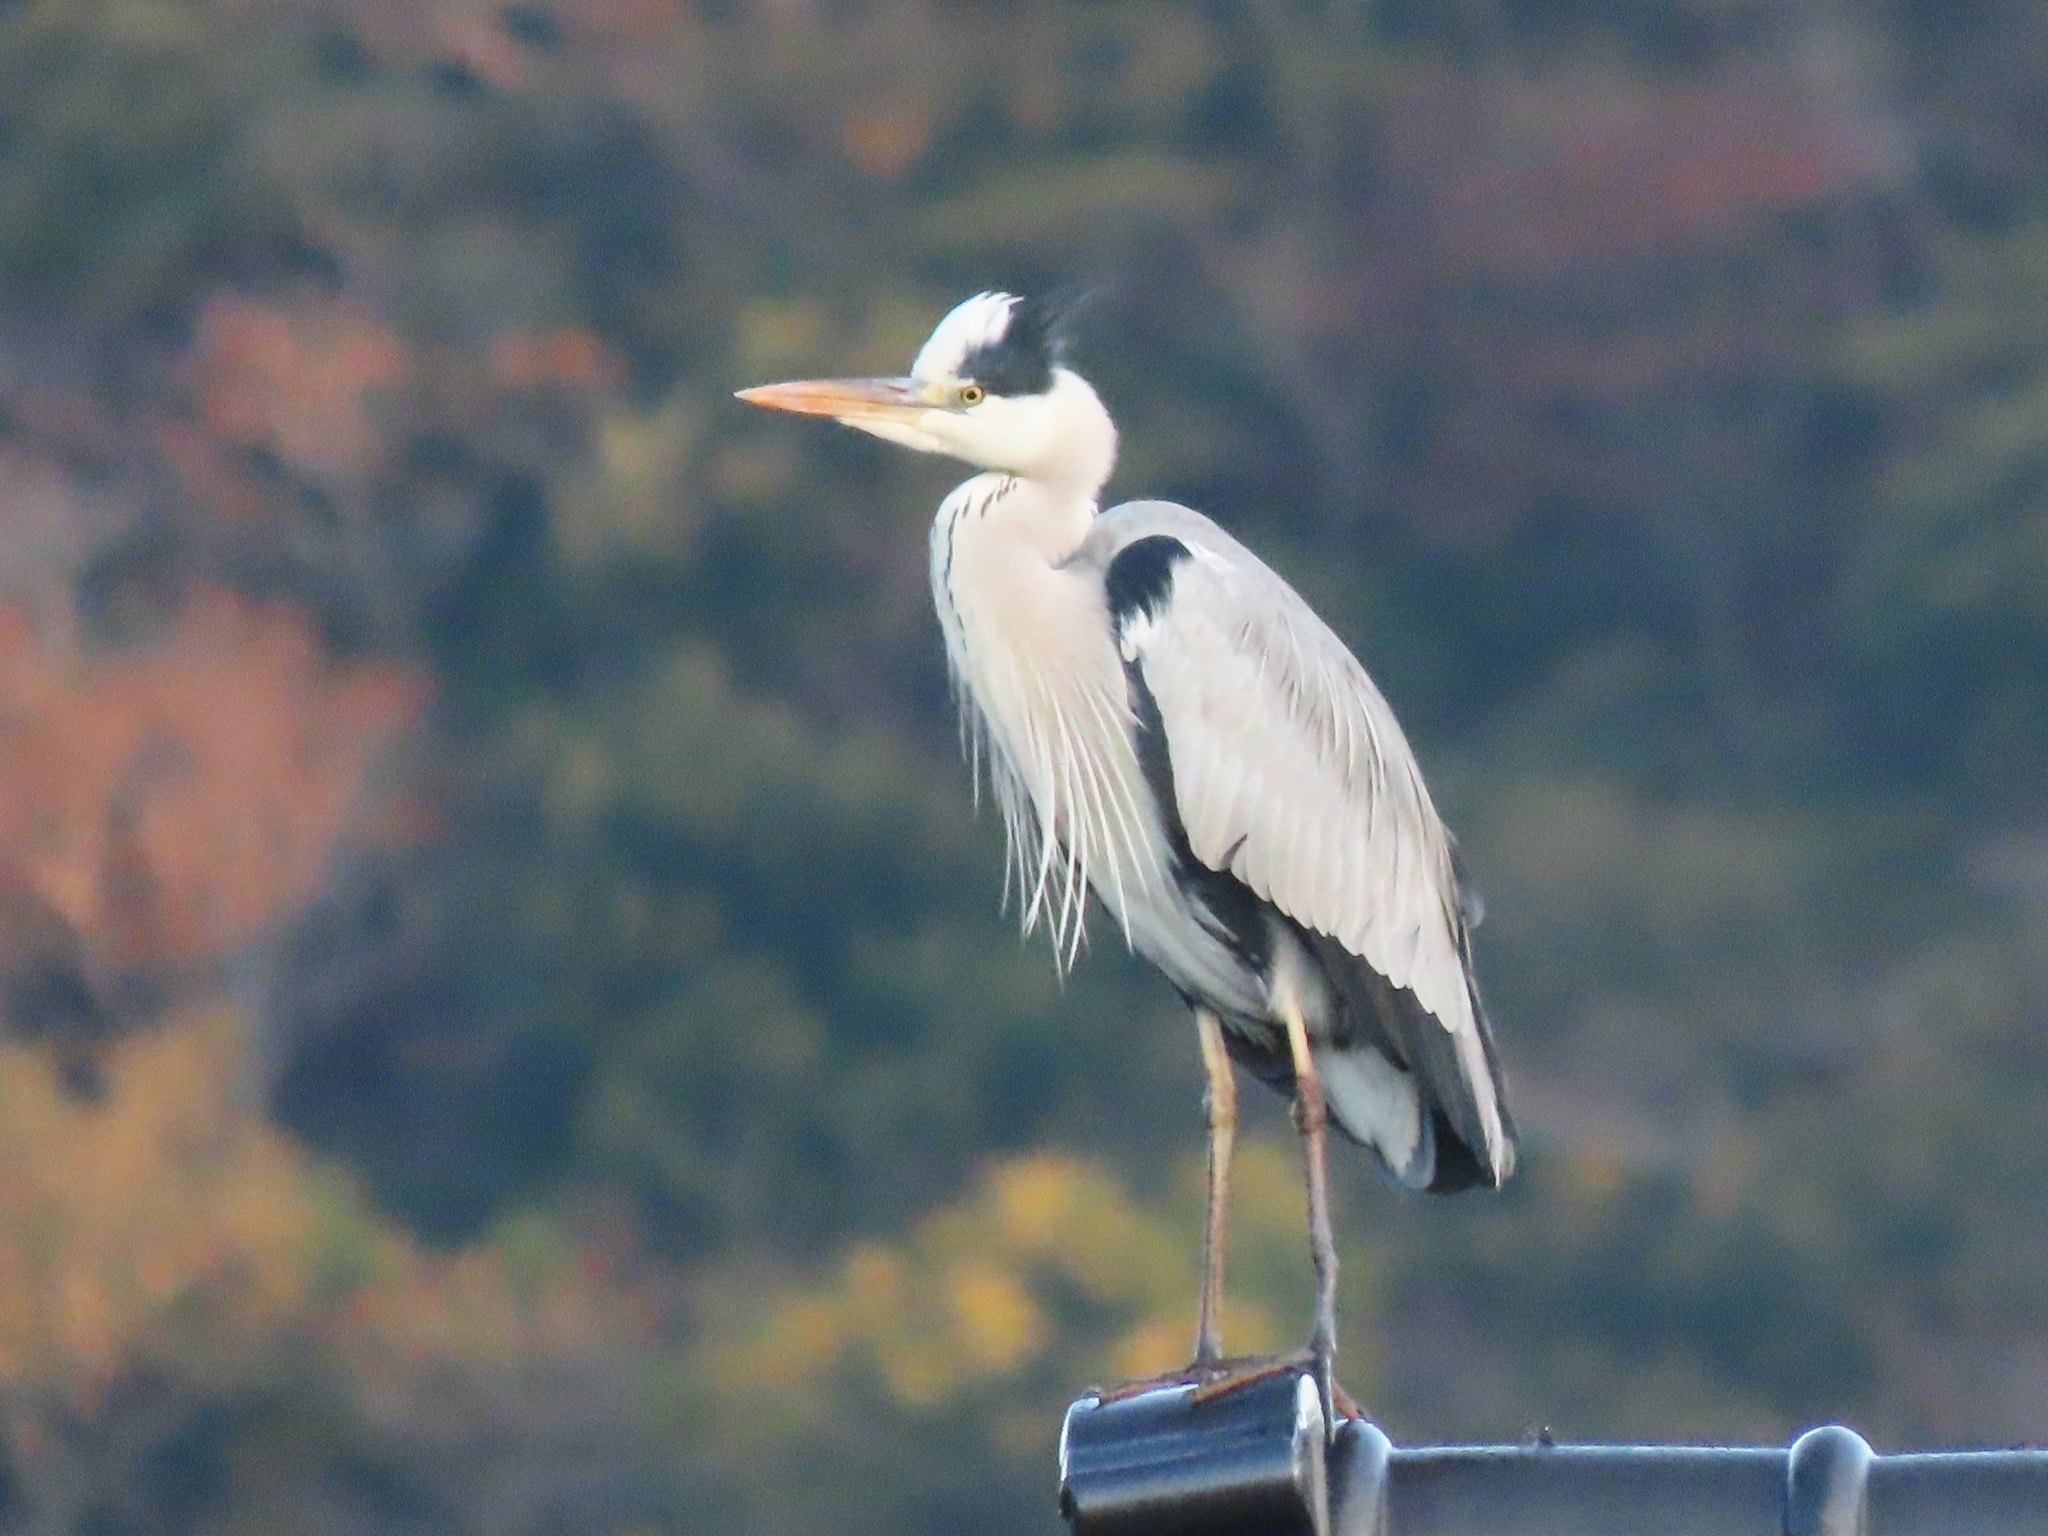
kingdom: Animalia
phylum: Chordata
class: Aves
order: Pelecaniformes
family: Ardeidae
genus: Ardea
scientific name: Ardea cinerea
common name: Grey heron
